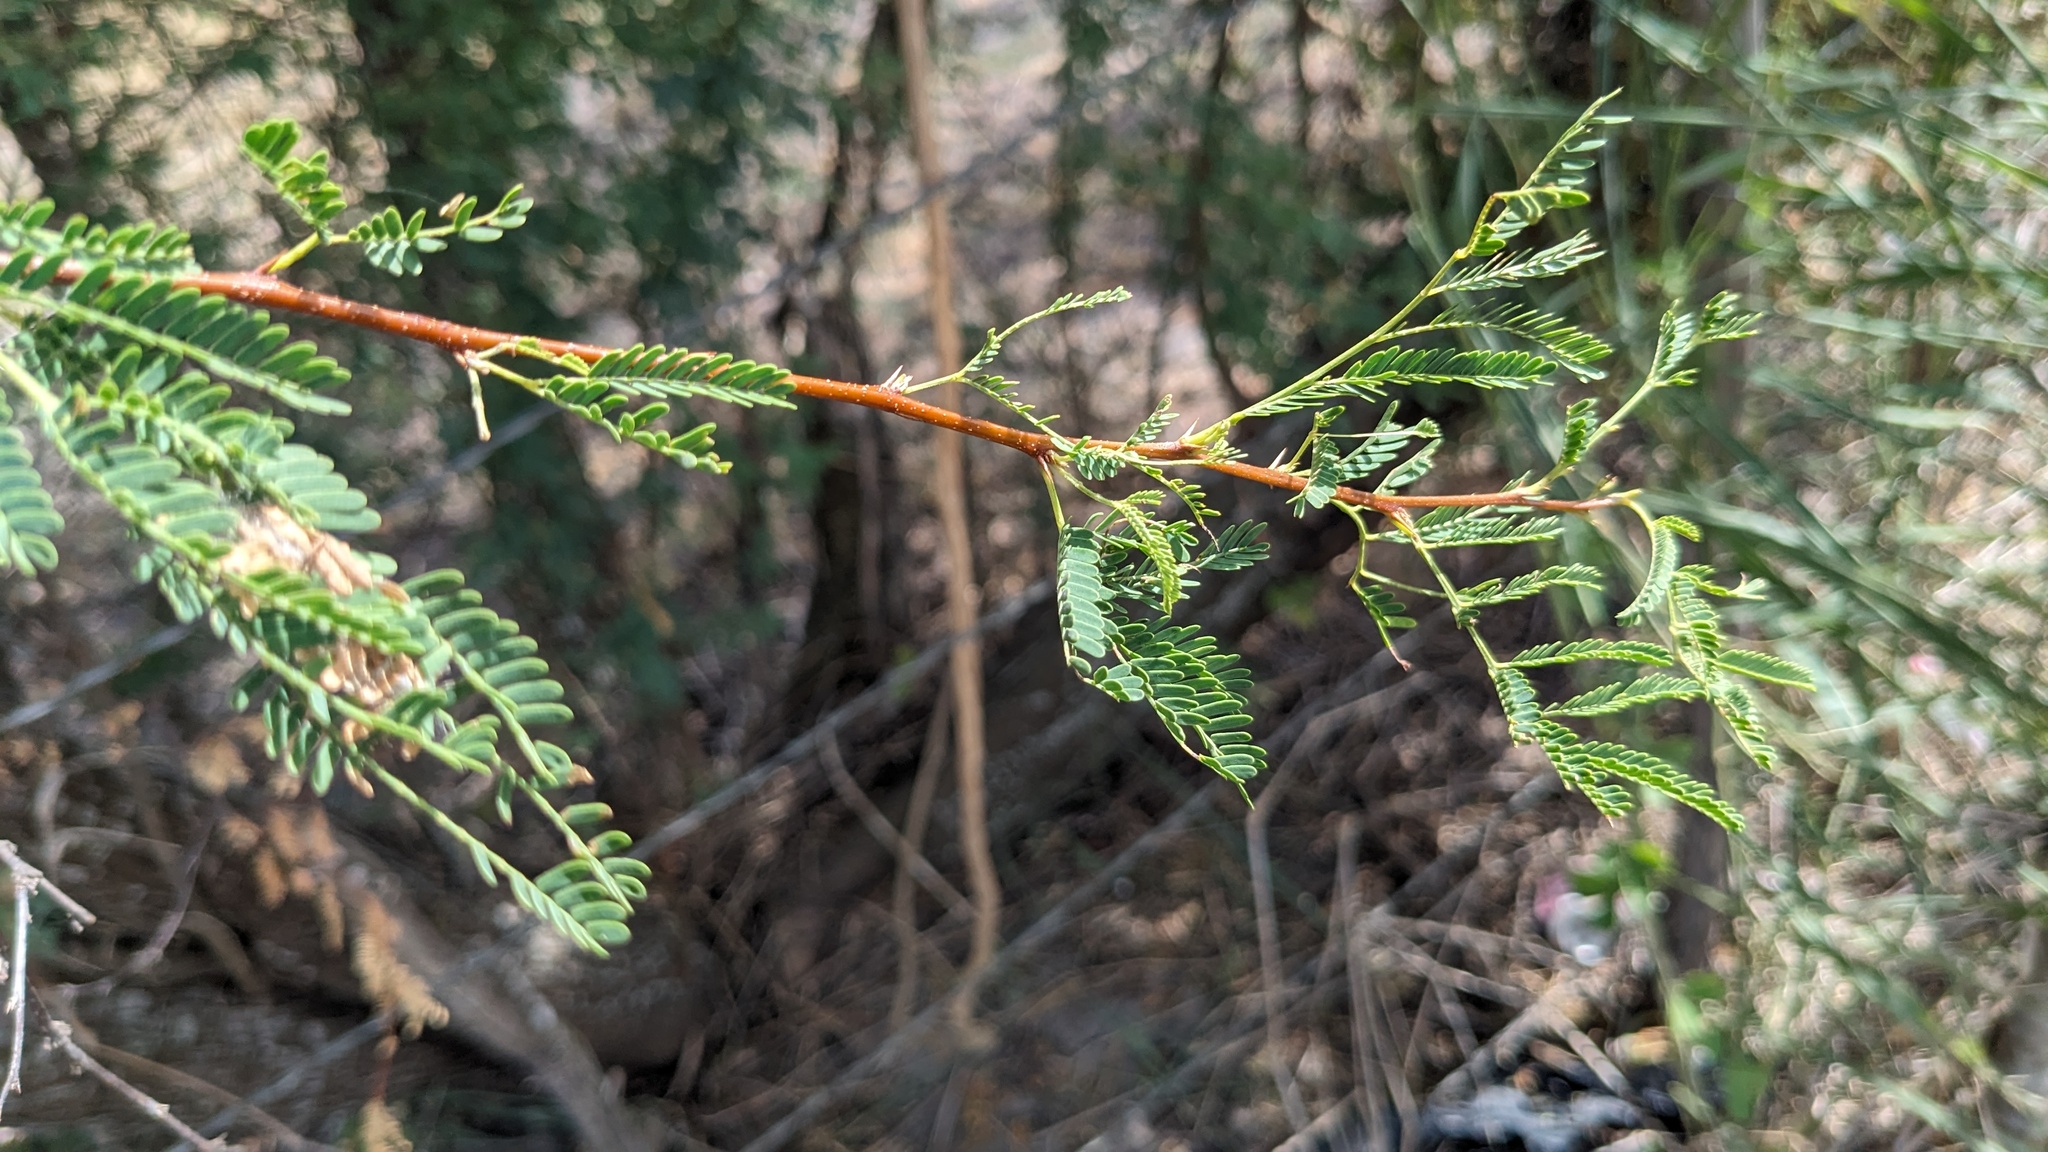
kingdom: Plantae
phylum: Tracheophyta
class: Magnoliopsida
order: Fabales
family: Fabaceae
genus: Vachellia
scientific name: Vachellia farnesiana
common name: Sweet acacia
